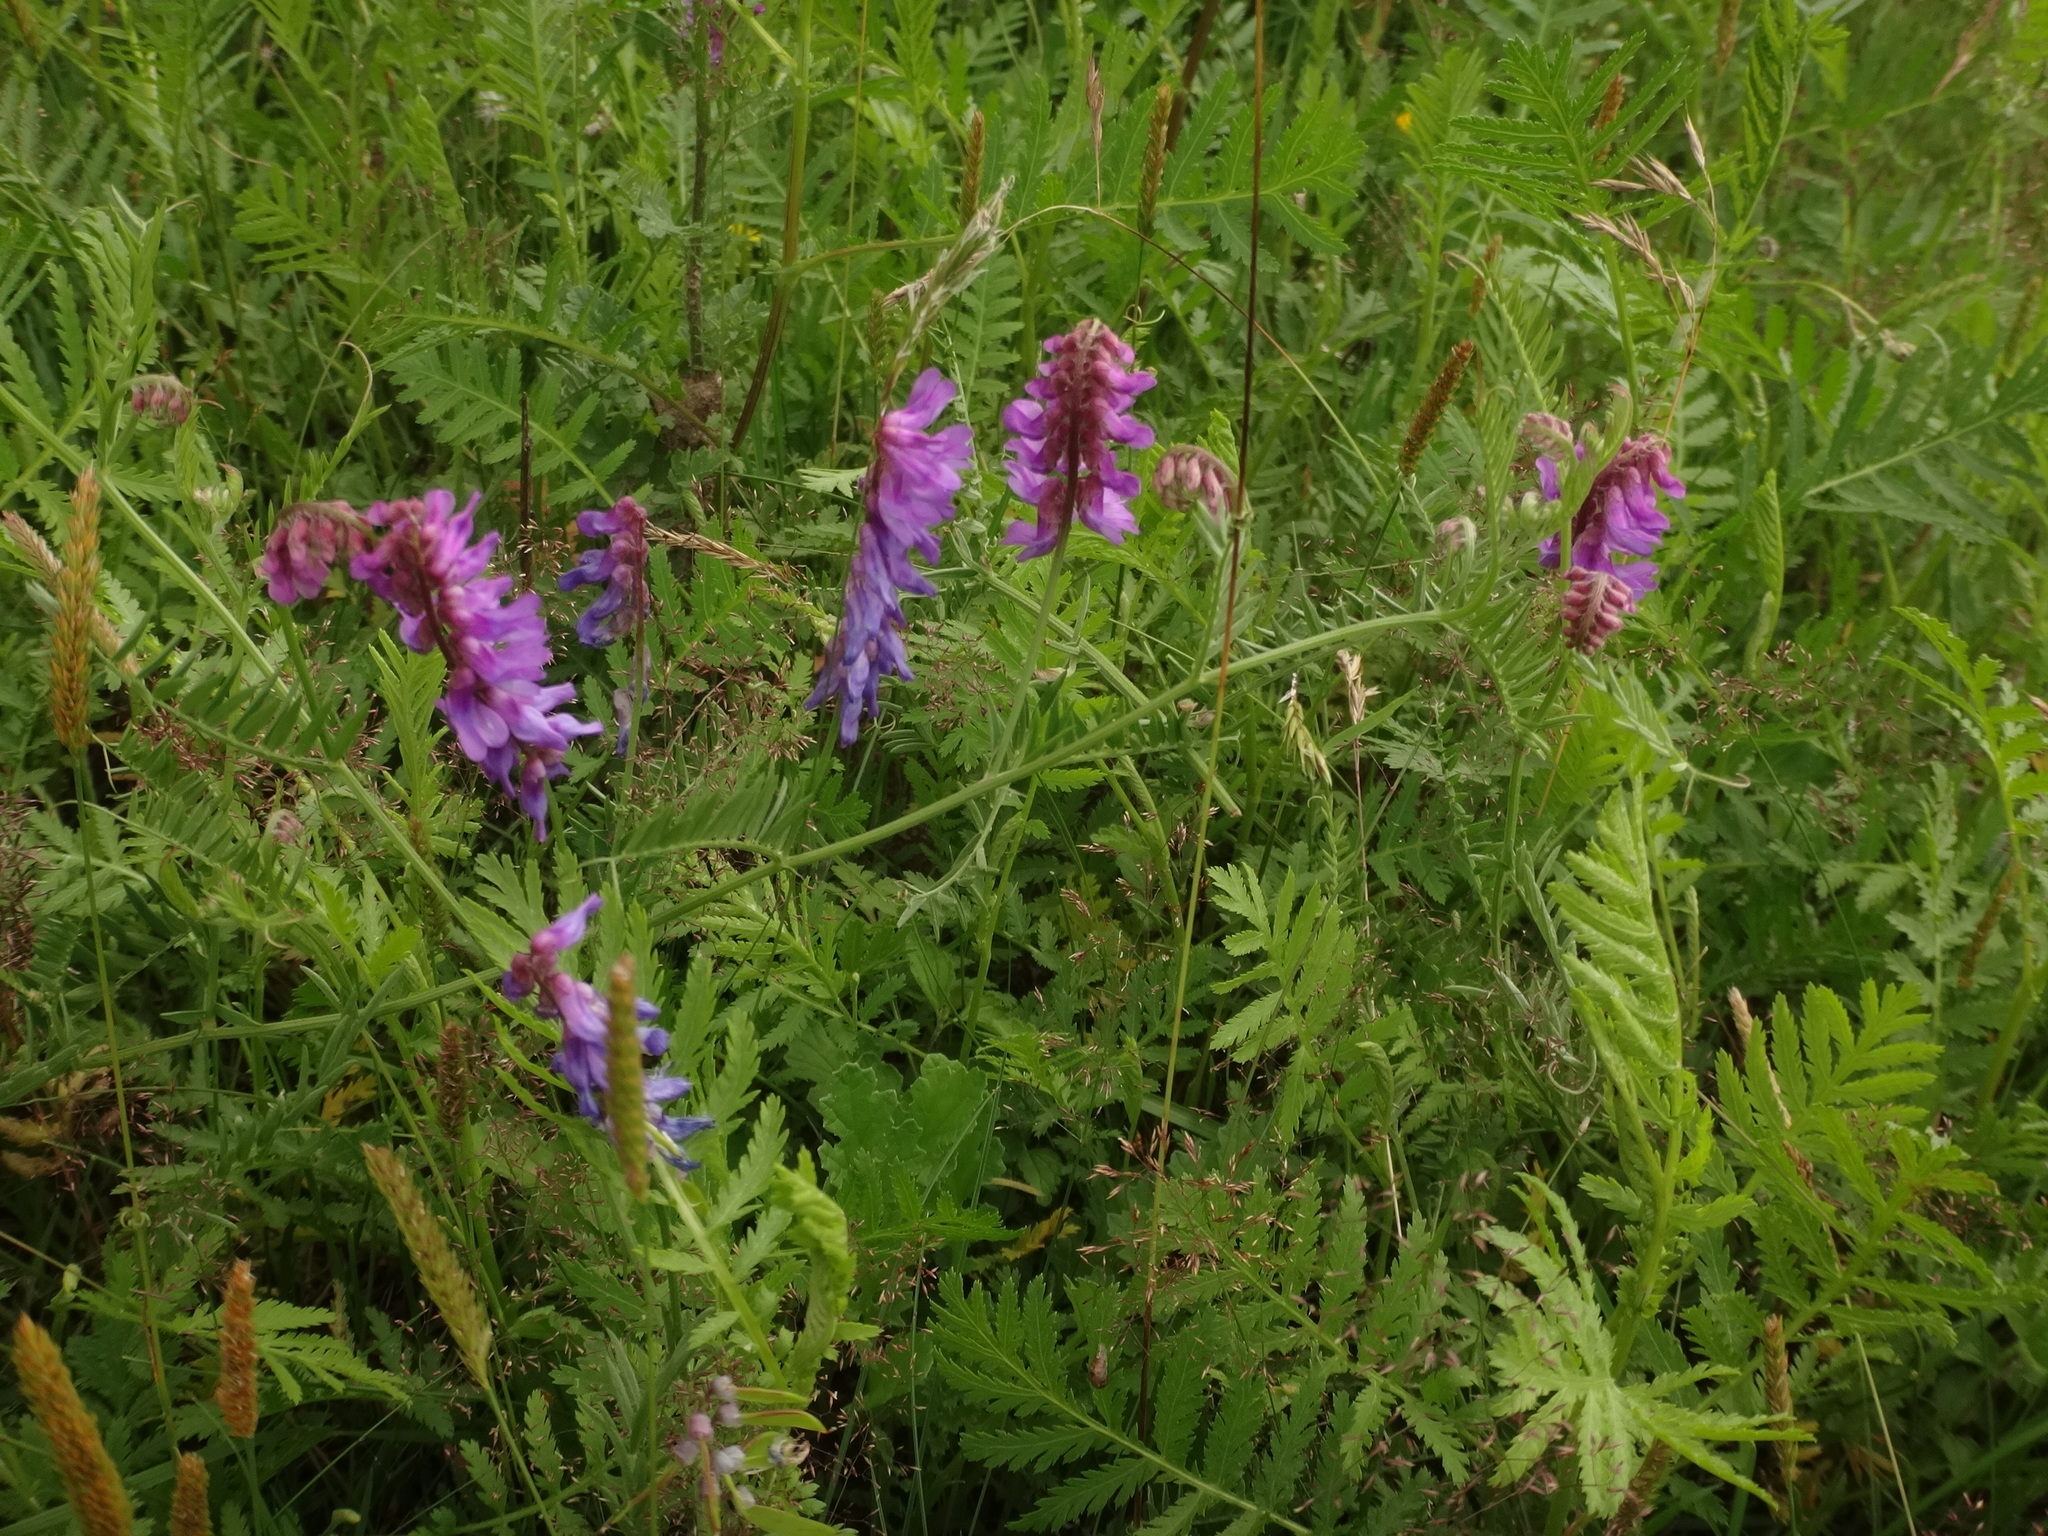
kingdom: Plantae
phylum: Tracheophyta
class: Magnoliopsida
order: Fabales
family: Fabaceae
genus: Vicia
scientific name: Vicia cracca
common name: Bird vetch
